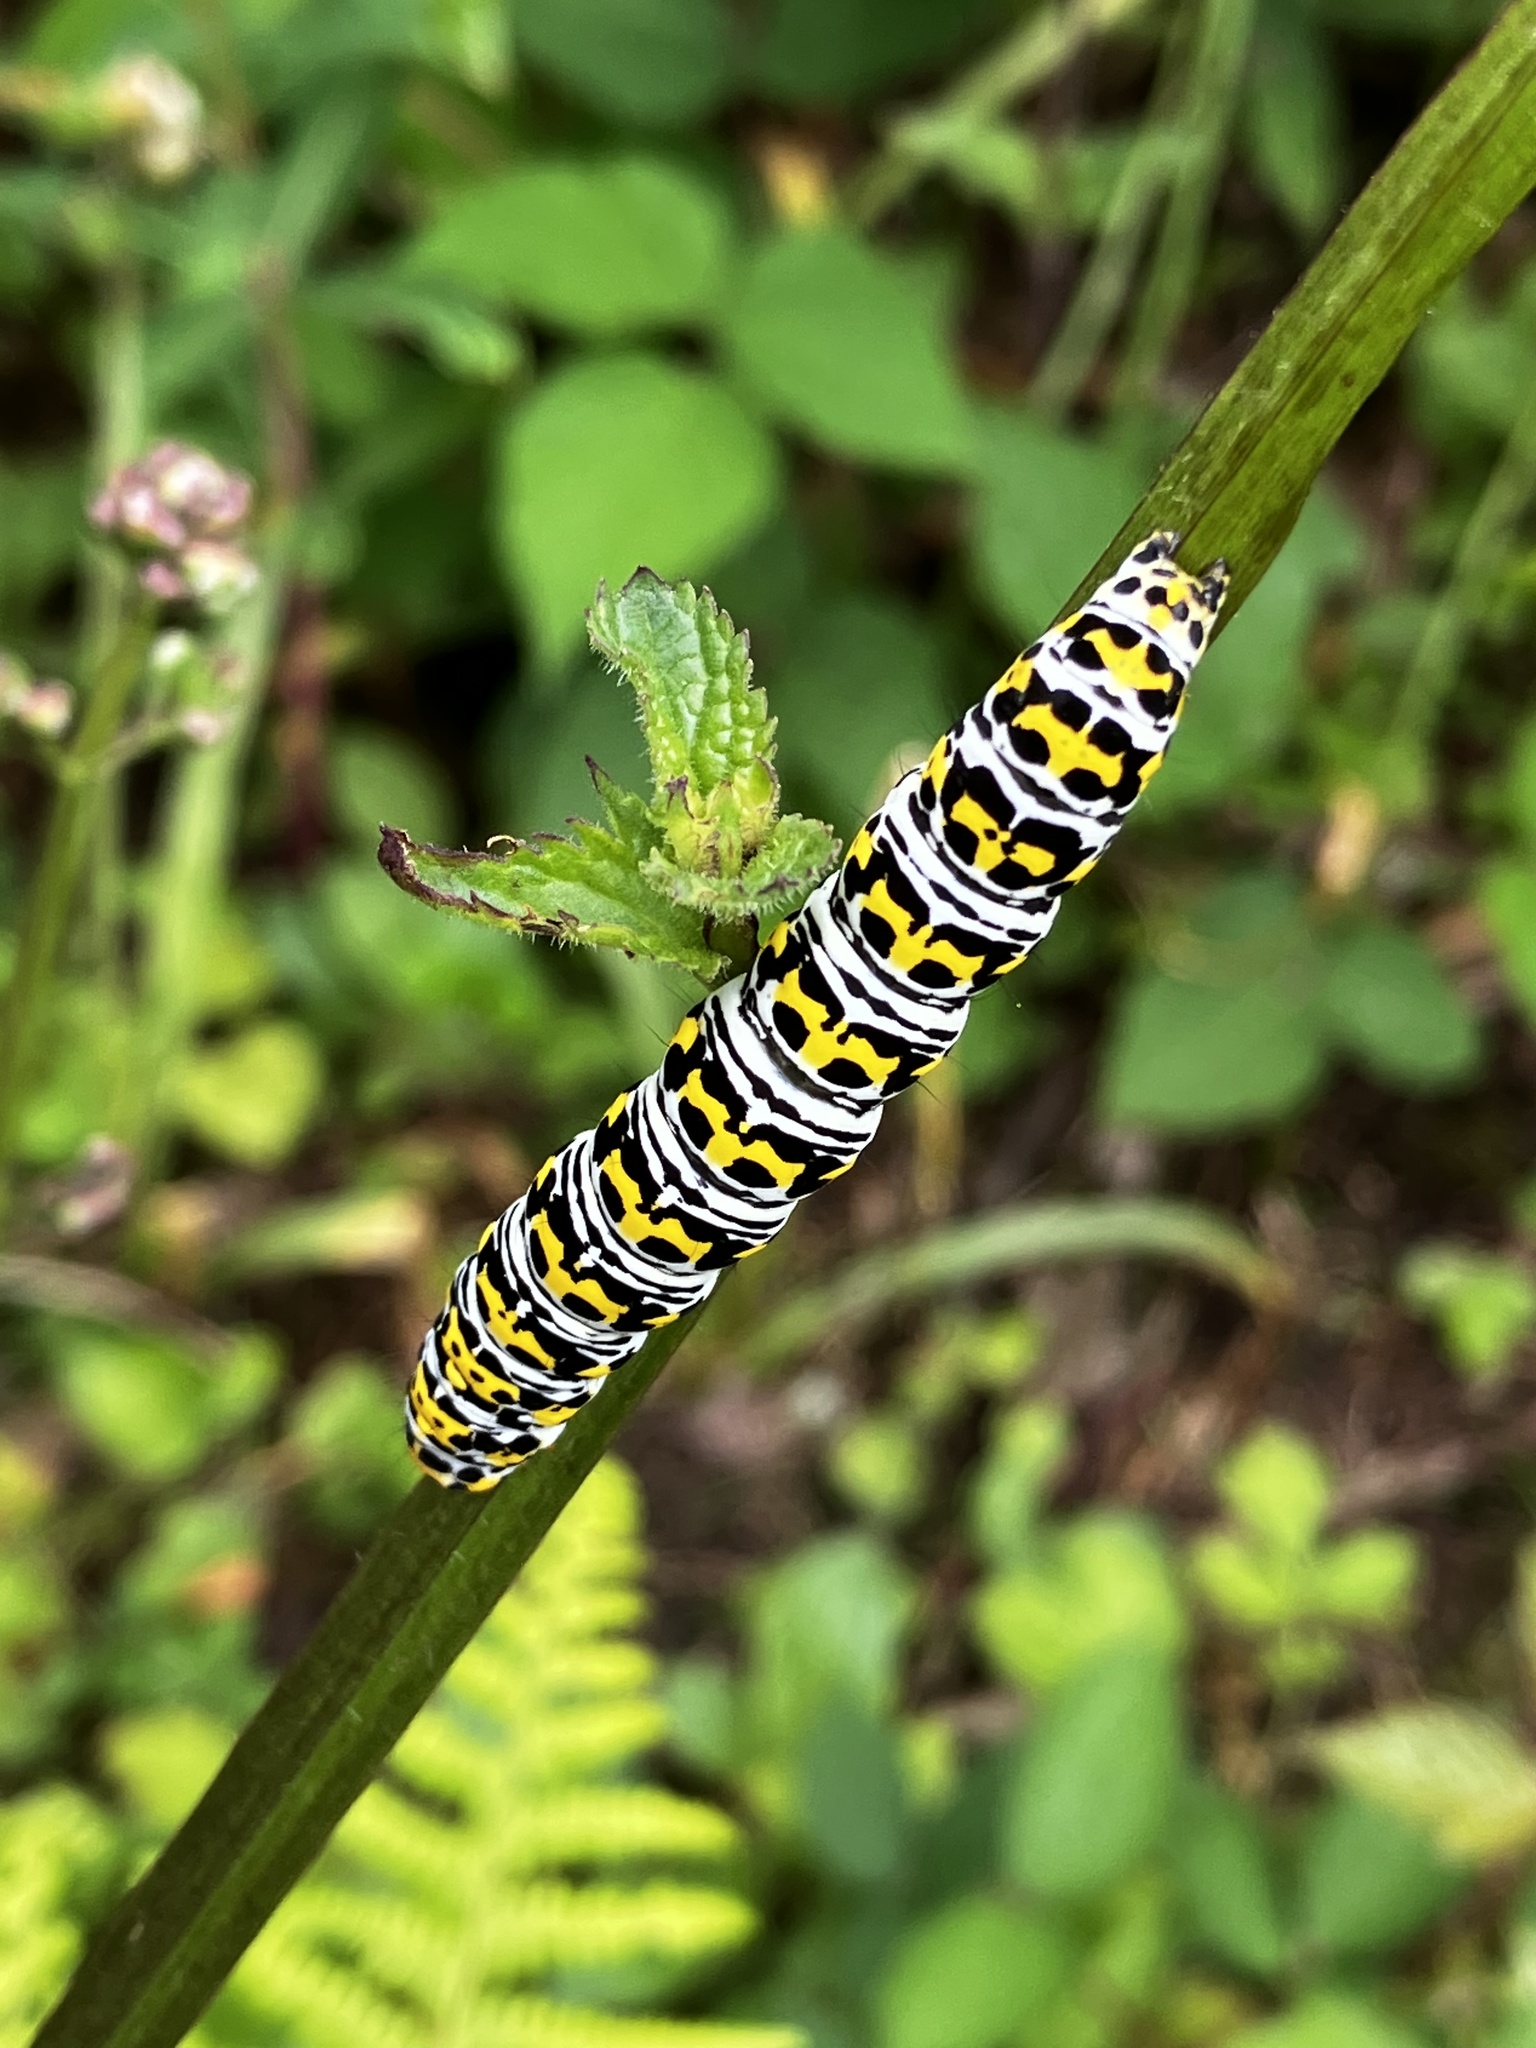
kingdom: Animalia
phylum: Arthropoda
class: Insecta
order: Lepidoptera
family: Noctuidae
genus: Cucullia
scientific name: Cucullia verbasci
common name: Mullein
